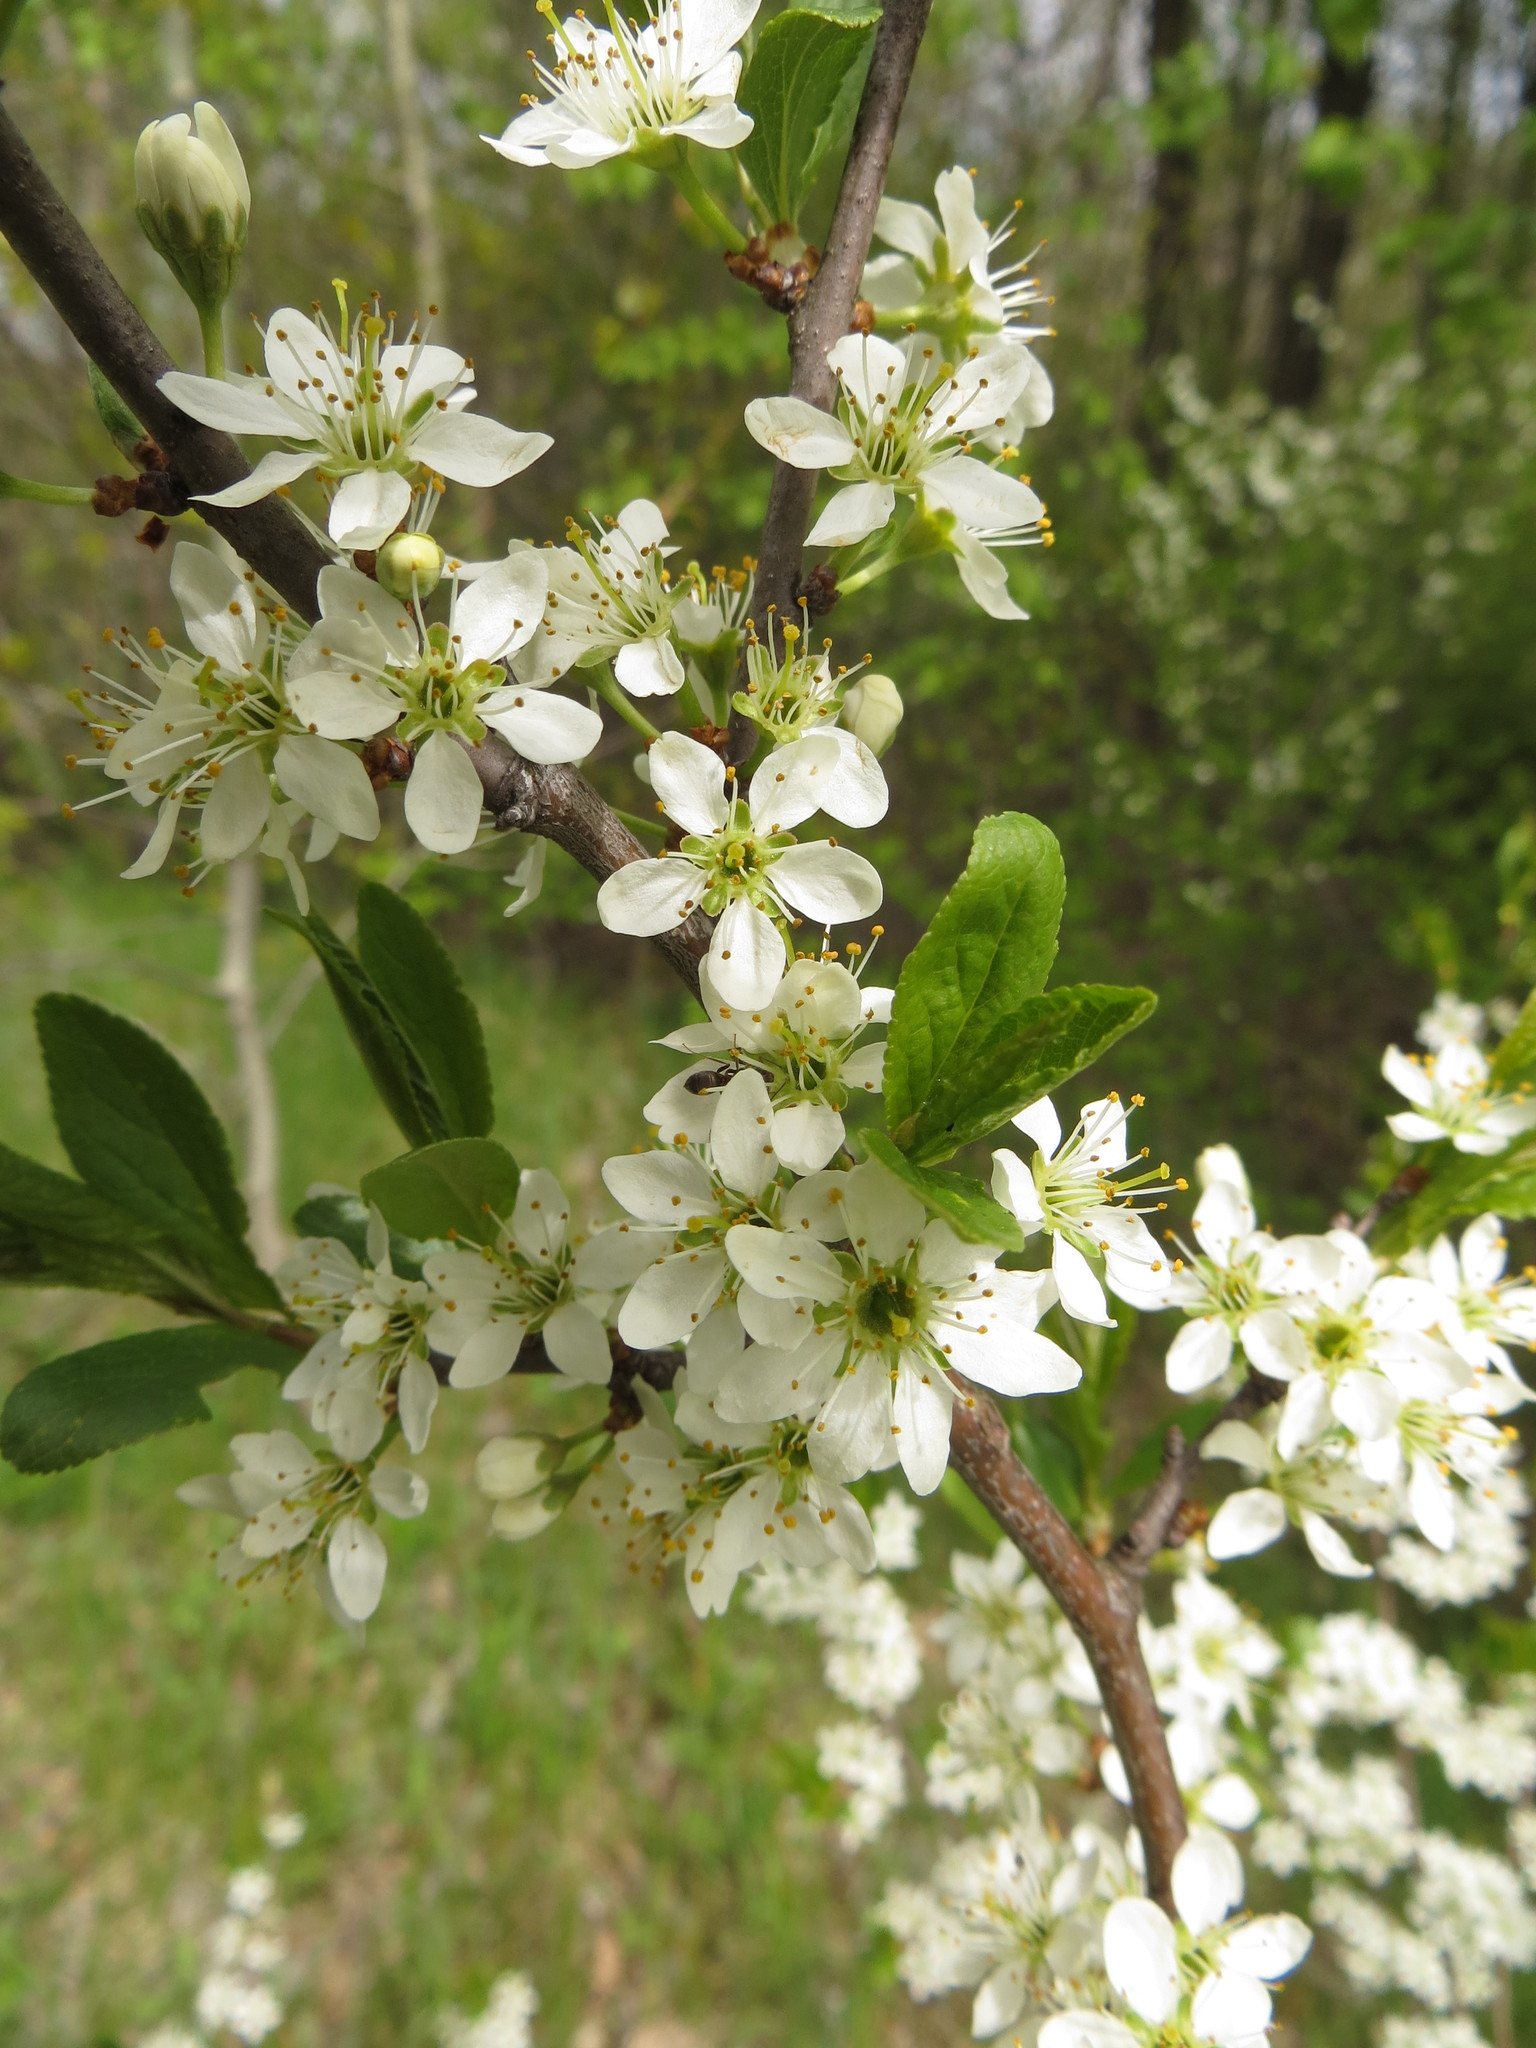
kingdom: Plantae
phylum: Tracheophyta
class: Magnoliopsida
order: Rosales
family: Rosaceae
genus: Prunus
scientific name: Prunus spinosa
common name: Blackthorn
